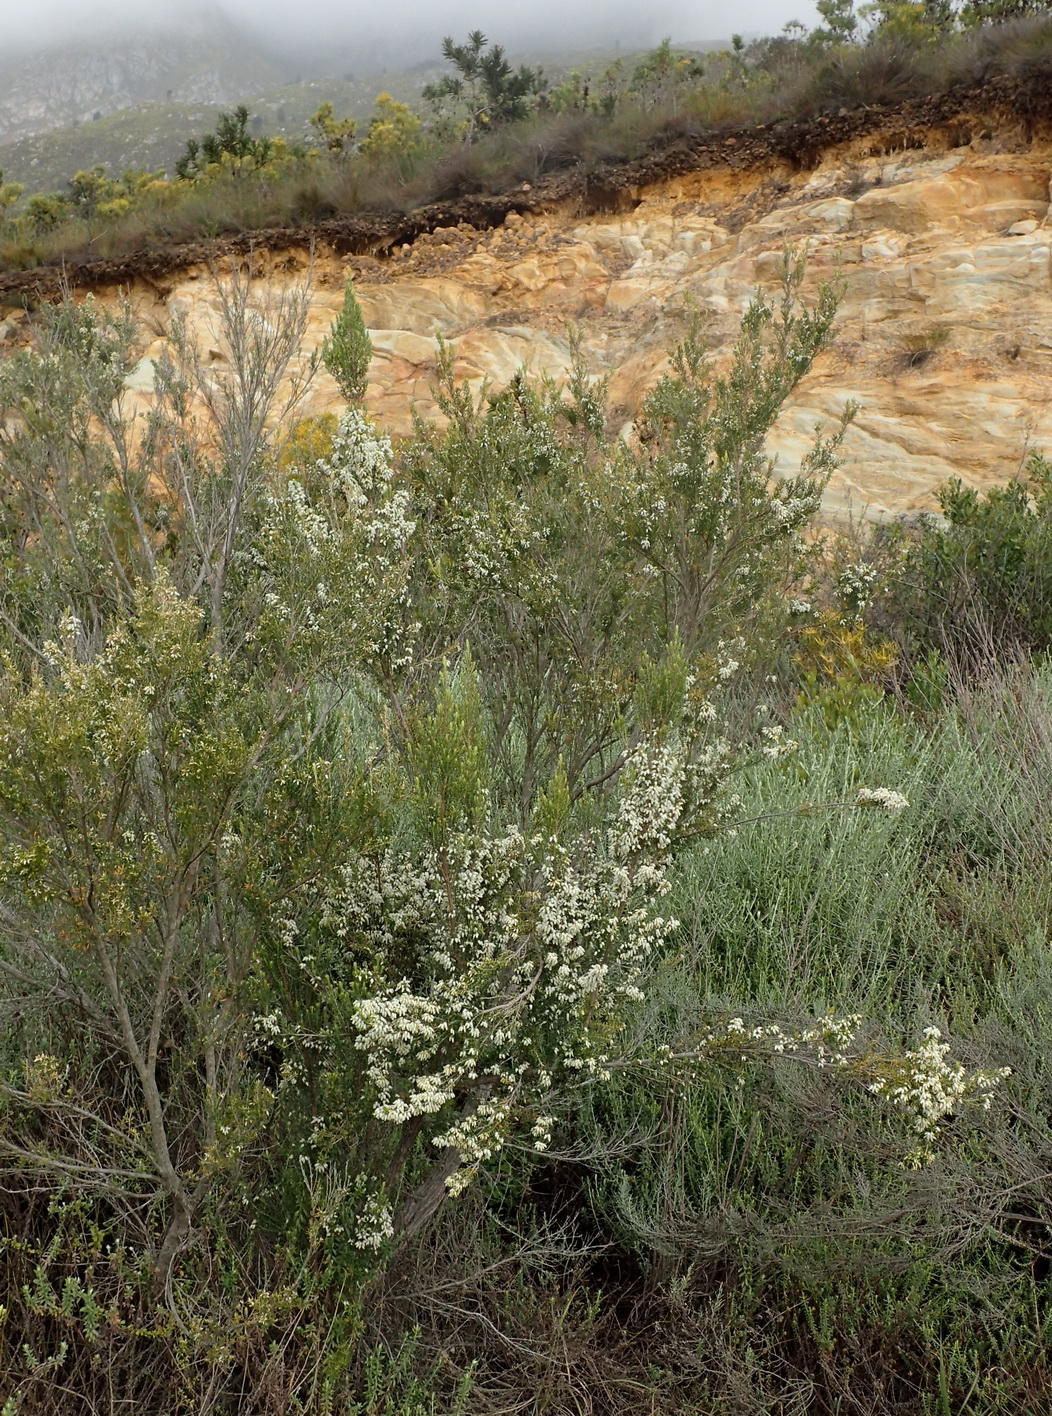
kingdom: Plantae
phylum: Tracheophyta
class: Magnoliopsida
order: Ericales
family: Ericaceae
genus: Erica
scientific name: Erica caffra
